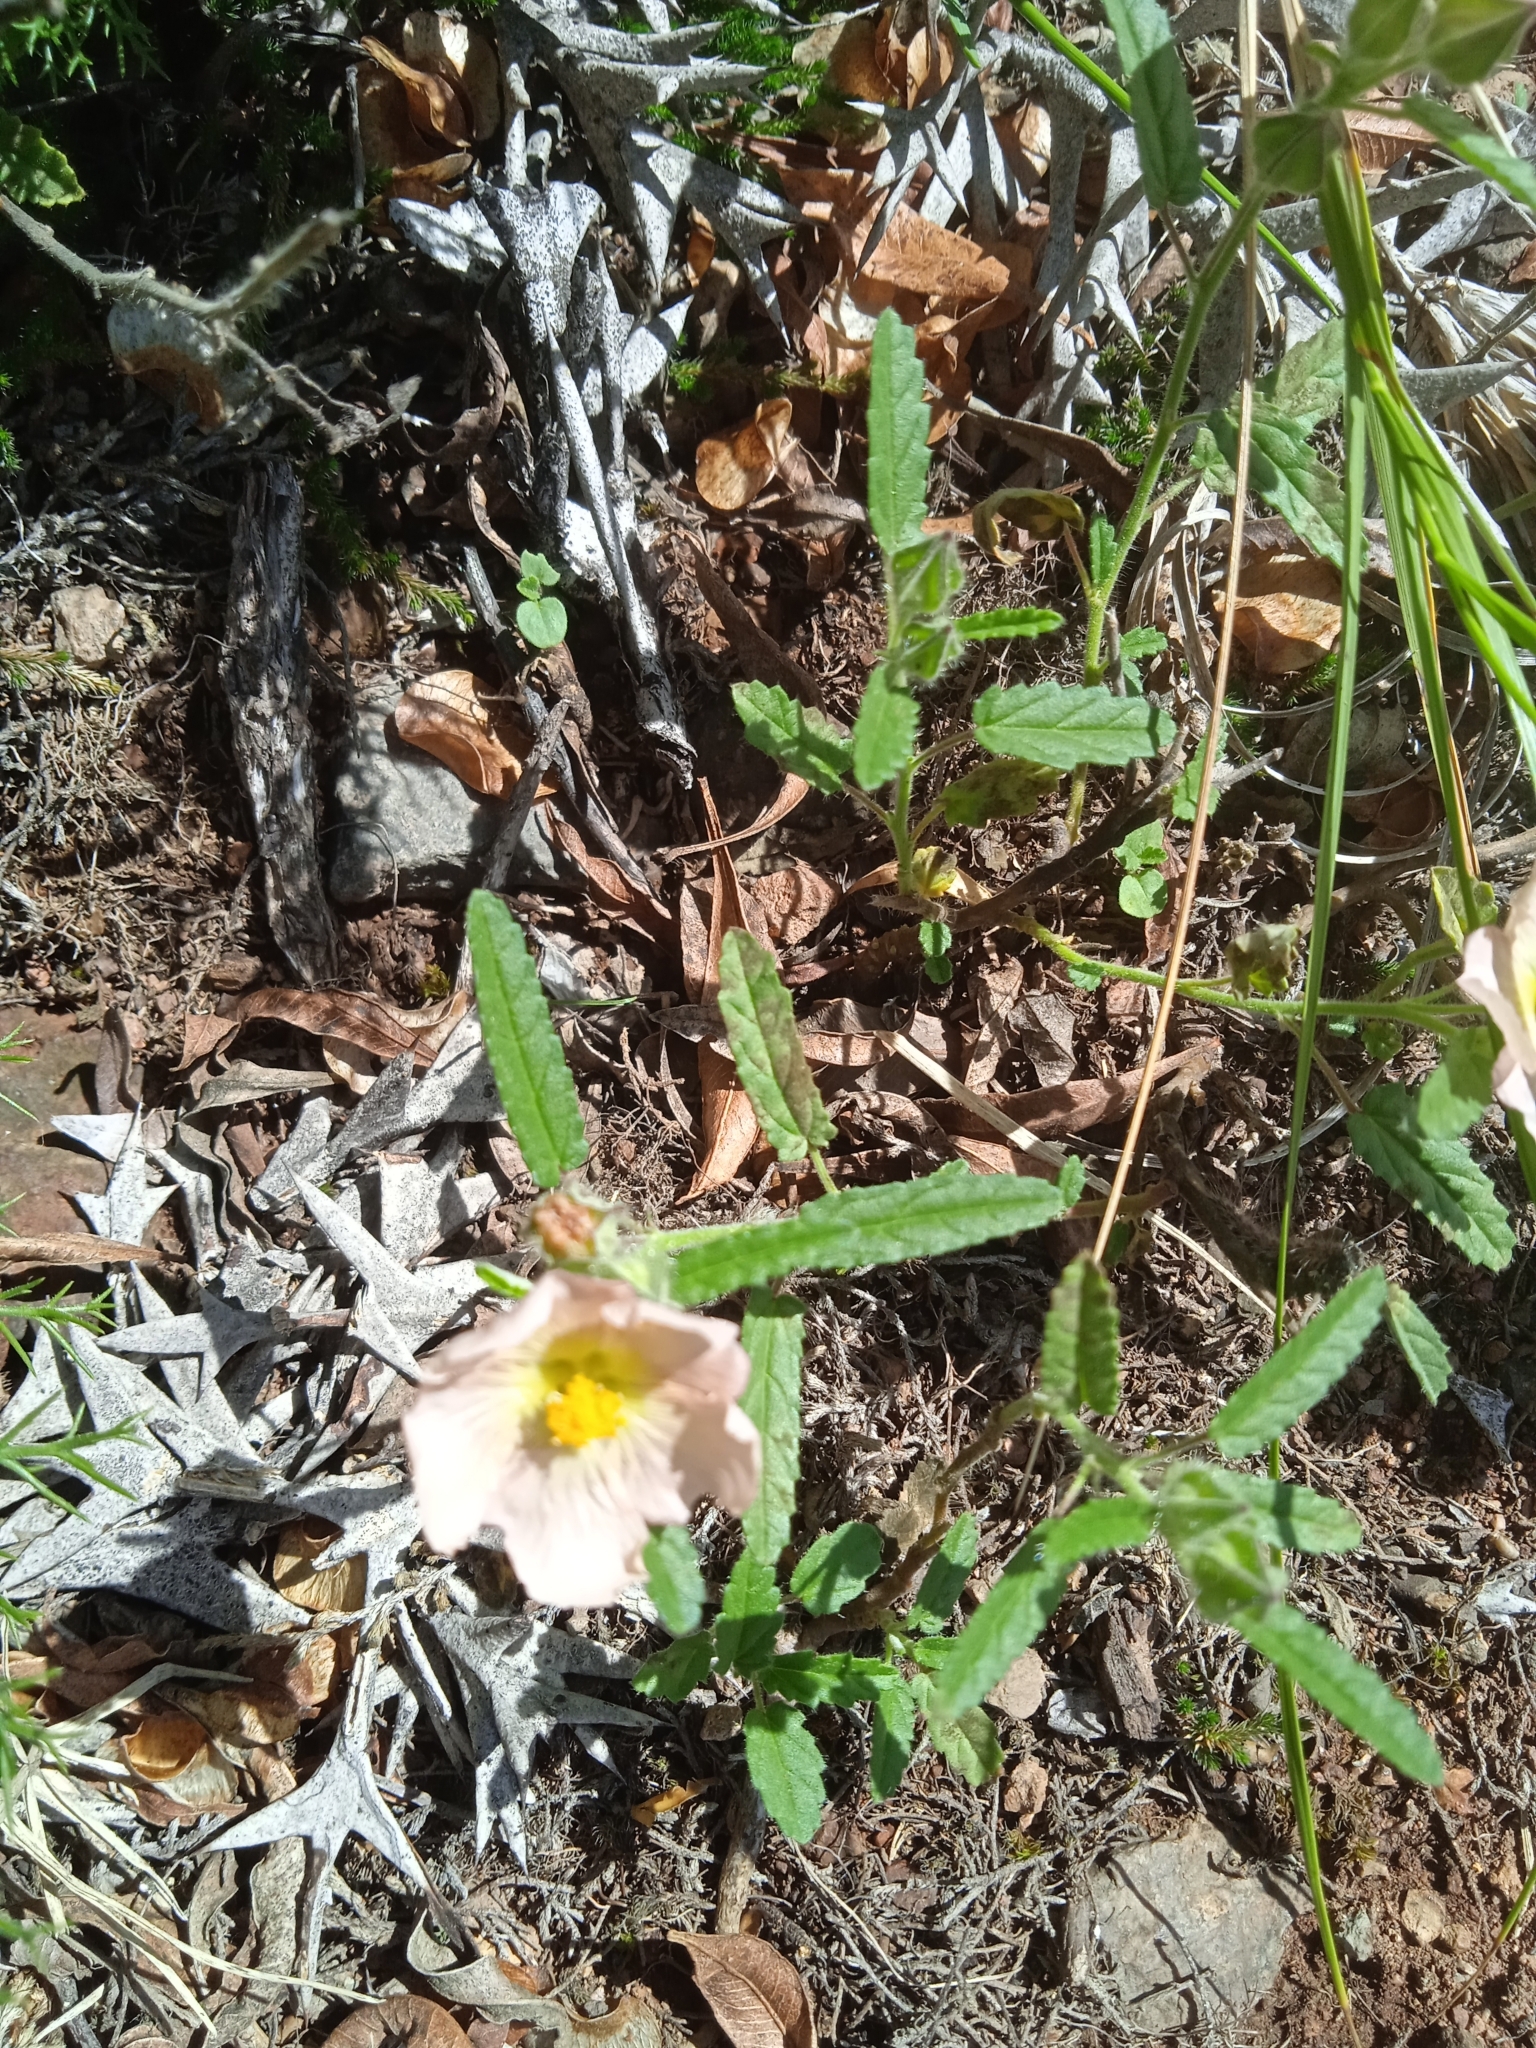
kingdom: Plantae
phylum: Tracheophyta
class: Magnoliopsida
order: Malvales
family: Malvaceae
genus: Sida
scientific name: Sida dubia
